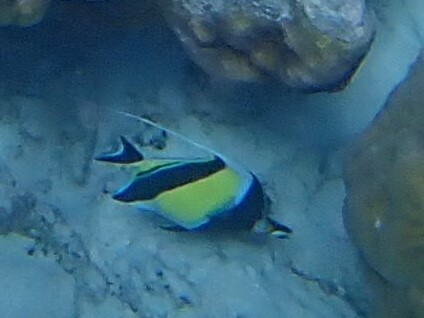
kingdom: Animalia
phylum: Chordata
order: Perciformes
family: Zanclidae
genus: Zanclus
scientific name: Zanclus cornutus
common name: Moorish idol
